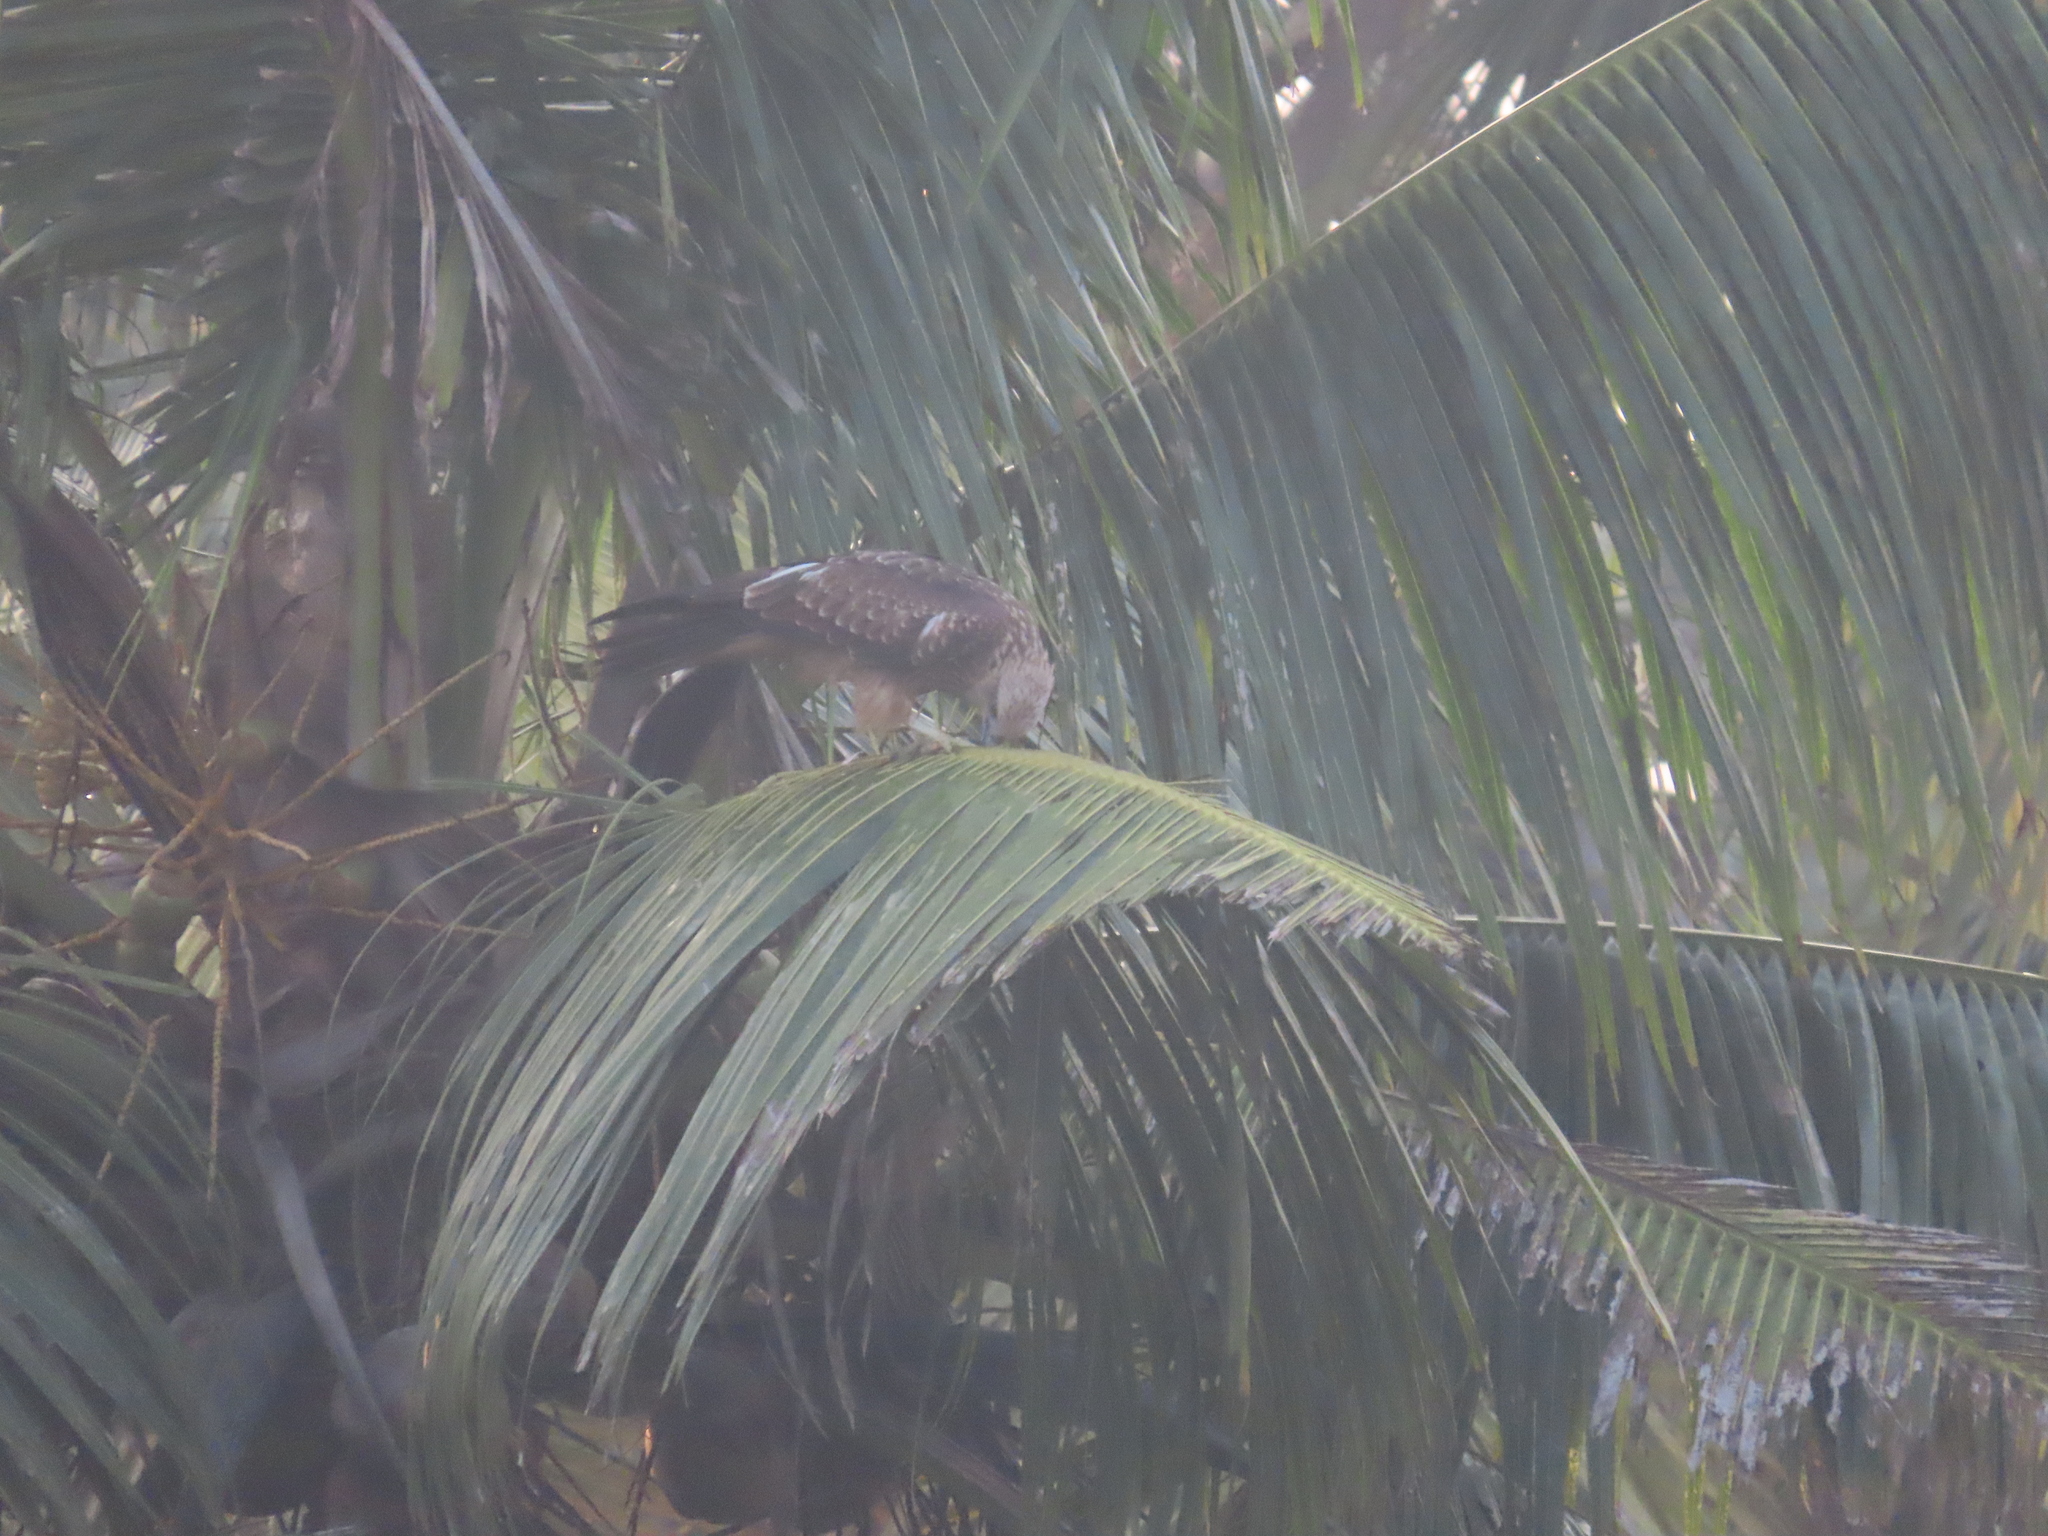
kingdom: Animalia
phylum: Chordata
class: Aves
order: Accipitriformes
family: Accipitridae
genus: Haliastur
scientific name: Haliastur indus
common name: Brahminy kite
